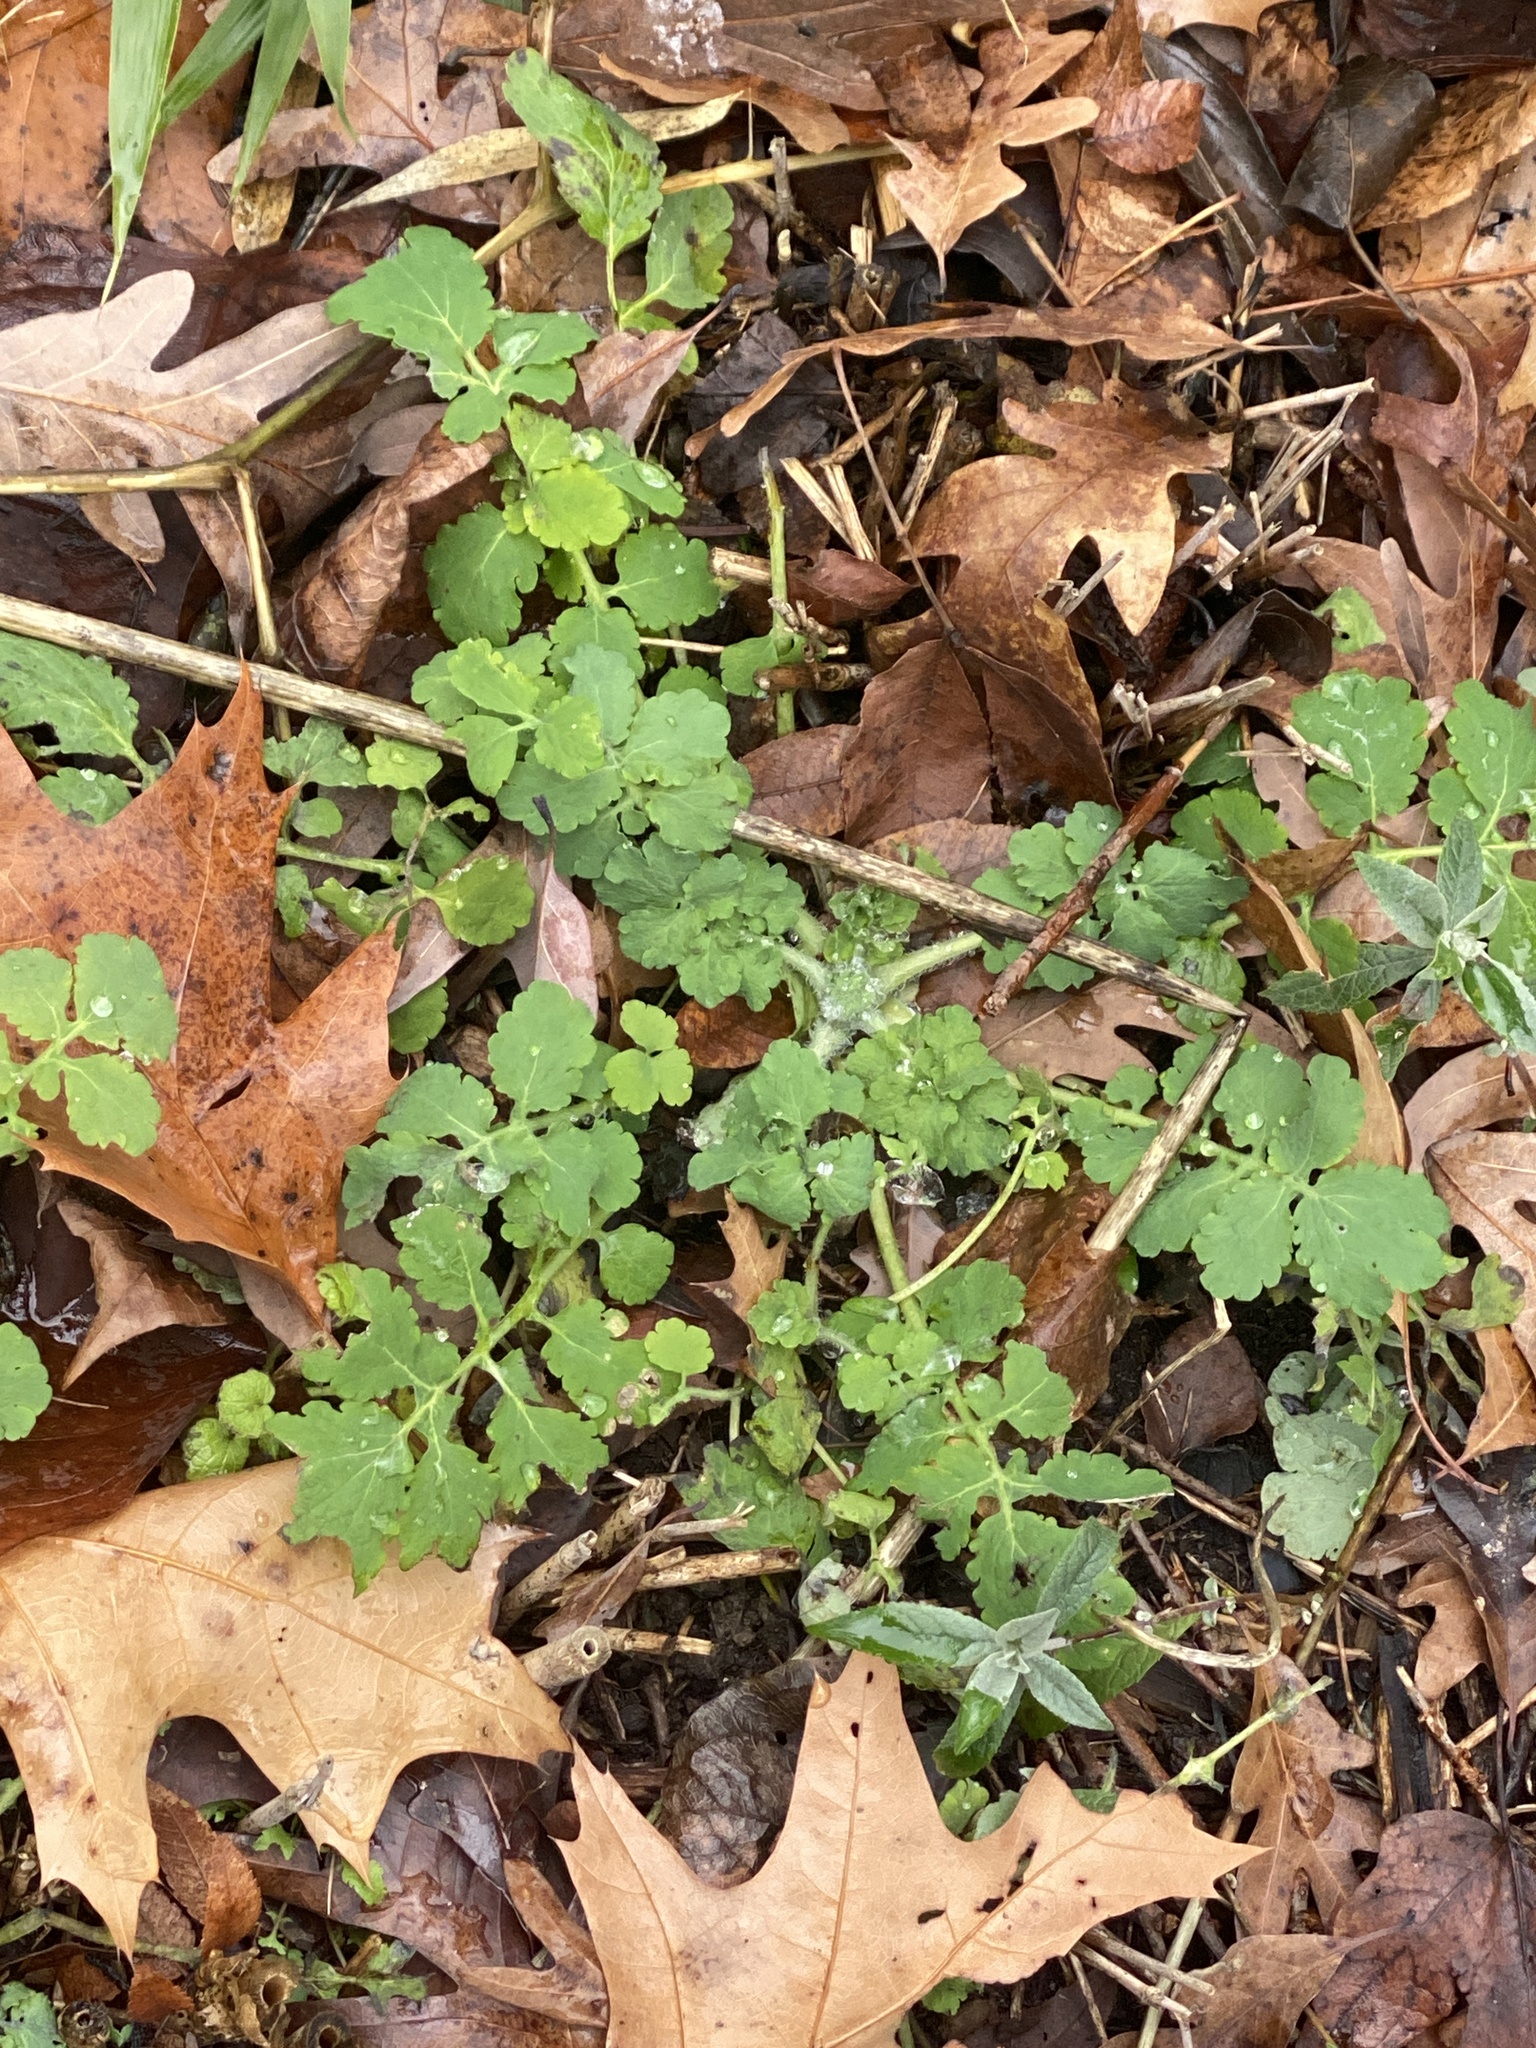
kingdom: Plantae
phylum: Tracheophyta
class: Magnoliopsida
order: Ranunculales
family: Papaveraceae
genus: Chelidonium
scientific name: Chelidonium majus
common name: Greater celandine
